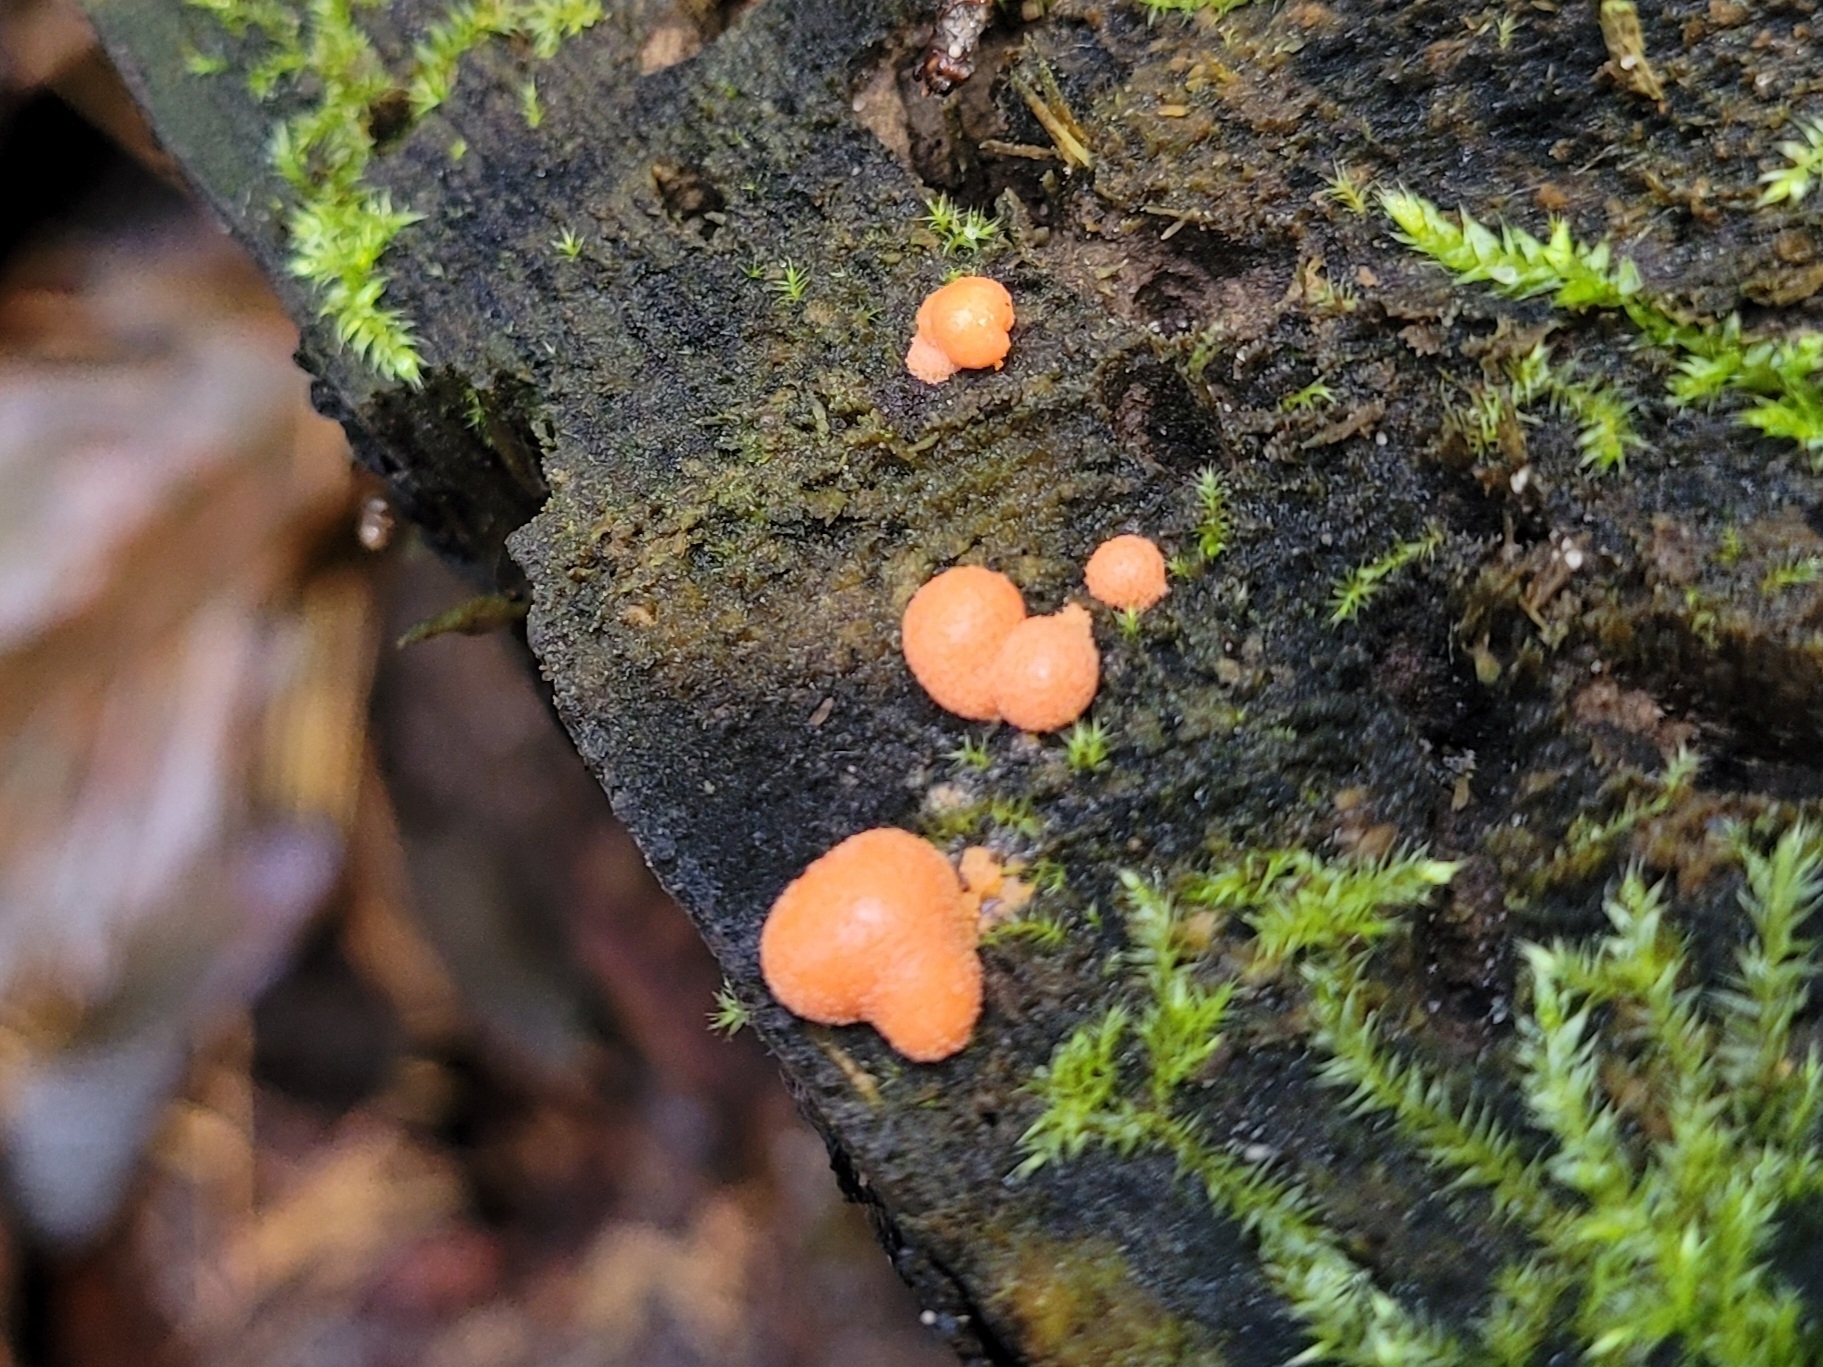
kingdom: Protozoa
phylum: Mycetozoa
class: Myxomycetes
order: Cribrariales
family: Tubiferaceae
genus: Lycogala
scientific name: Lycogala epidendrum
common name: Wolf's milk
